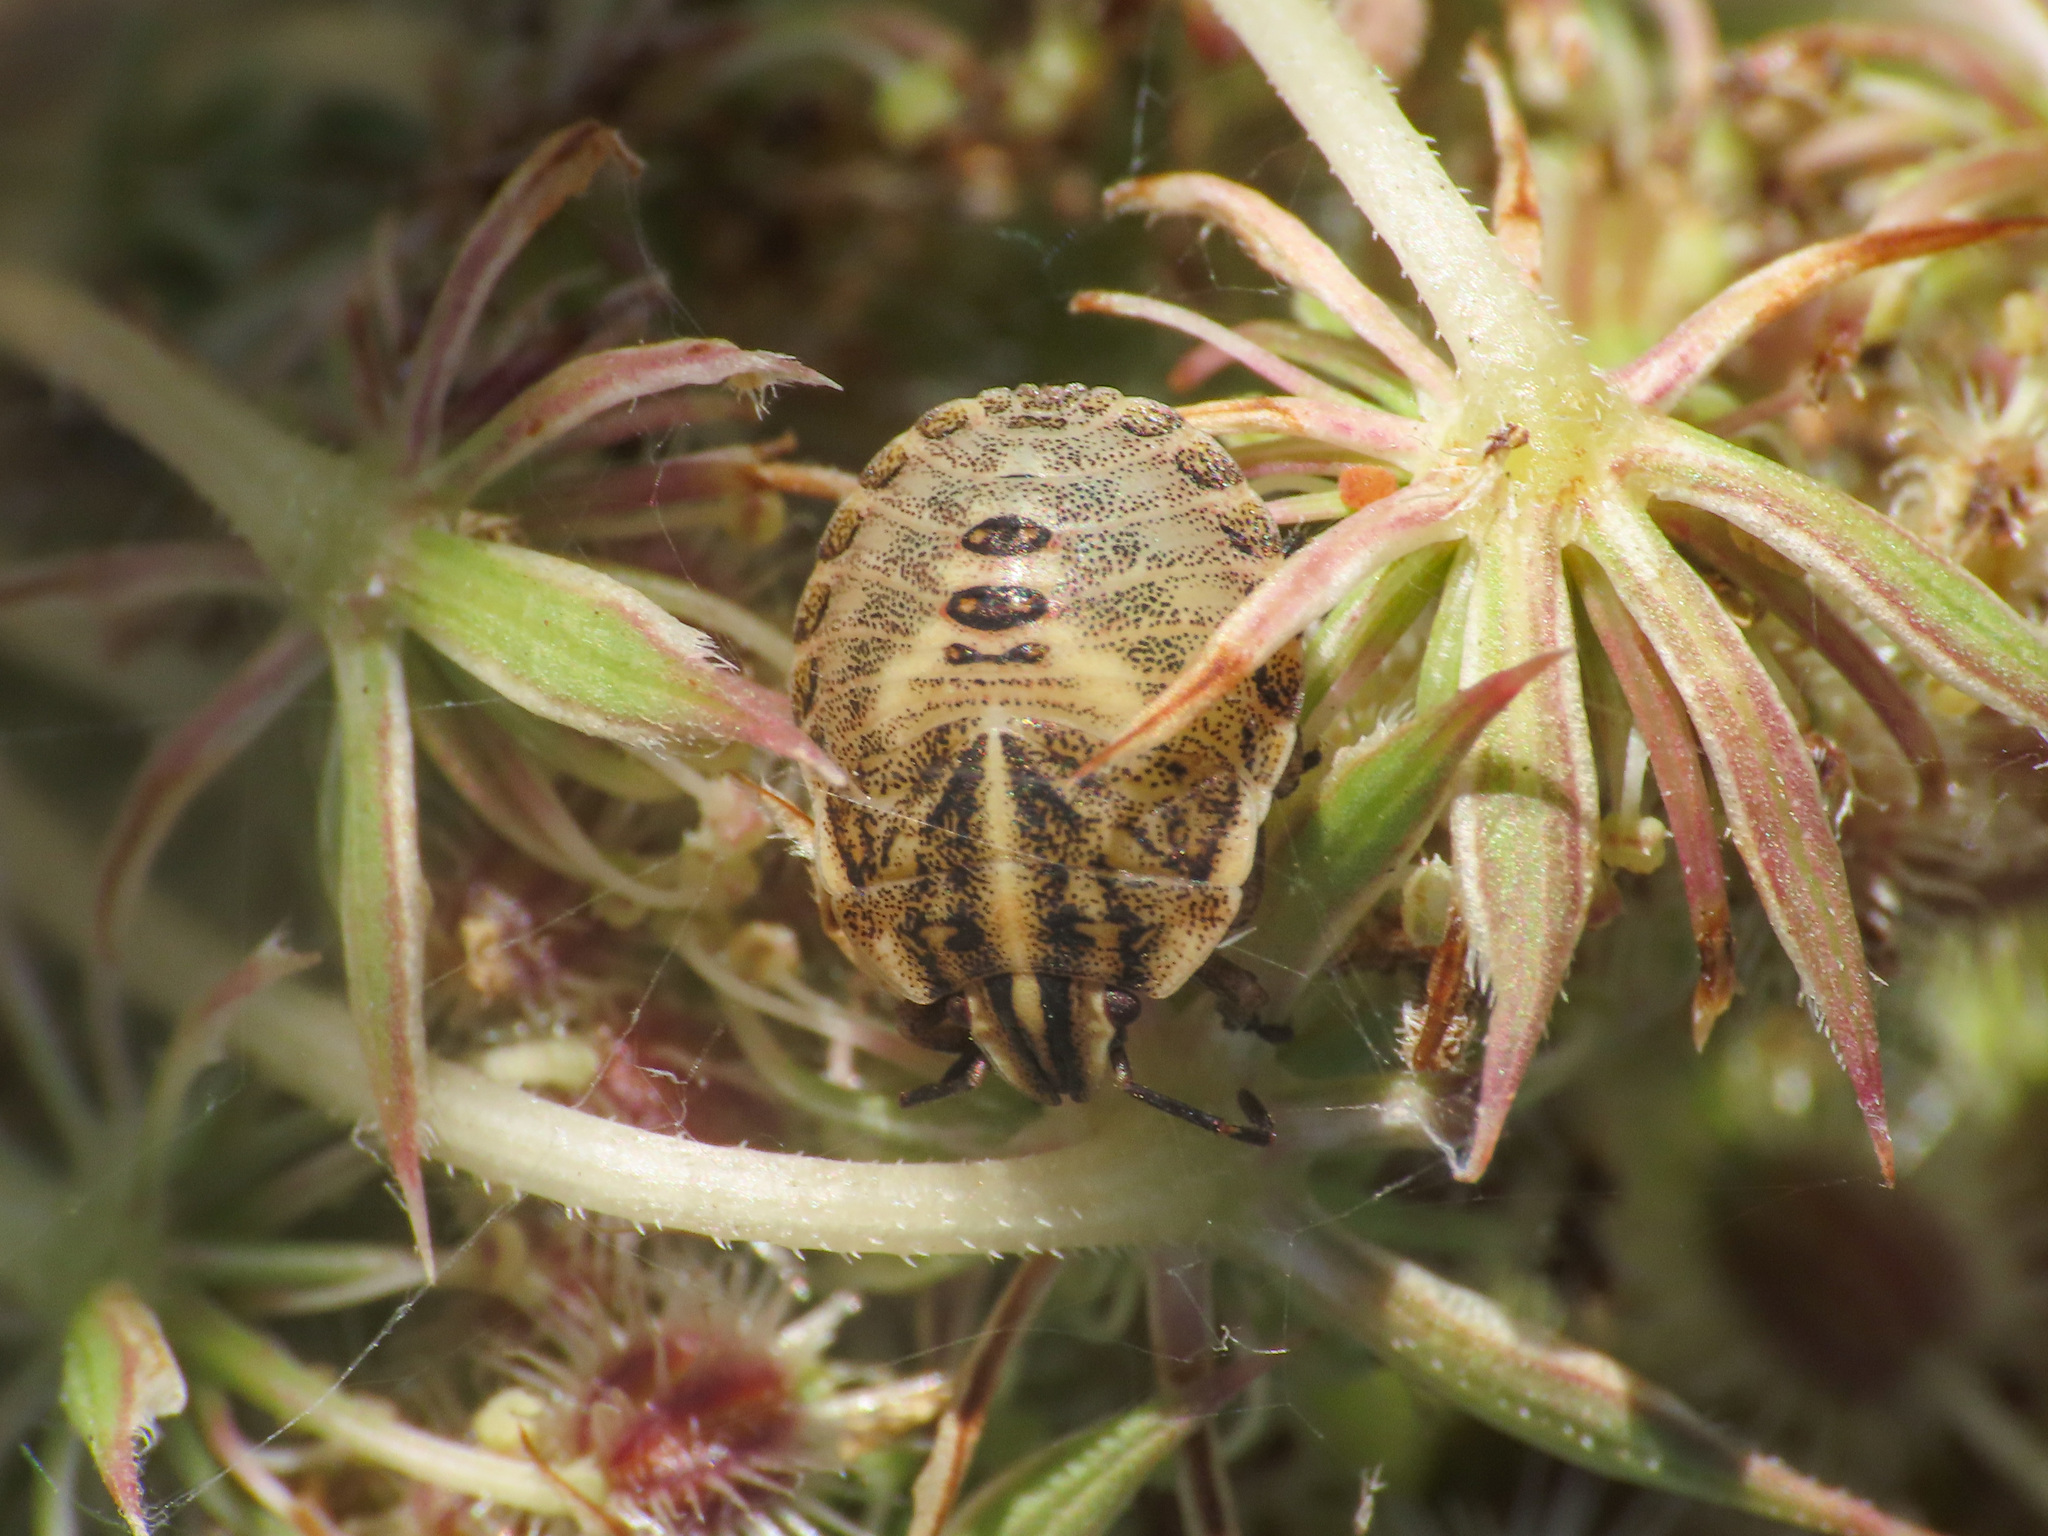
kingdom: Animalia
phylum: Arthropoda
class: Insecta
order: Hemiptera
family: Pentatomidae
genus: Graphosoma
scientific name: Graphosoma italicum
